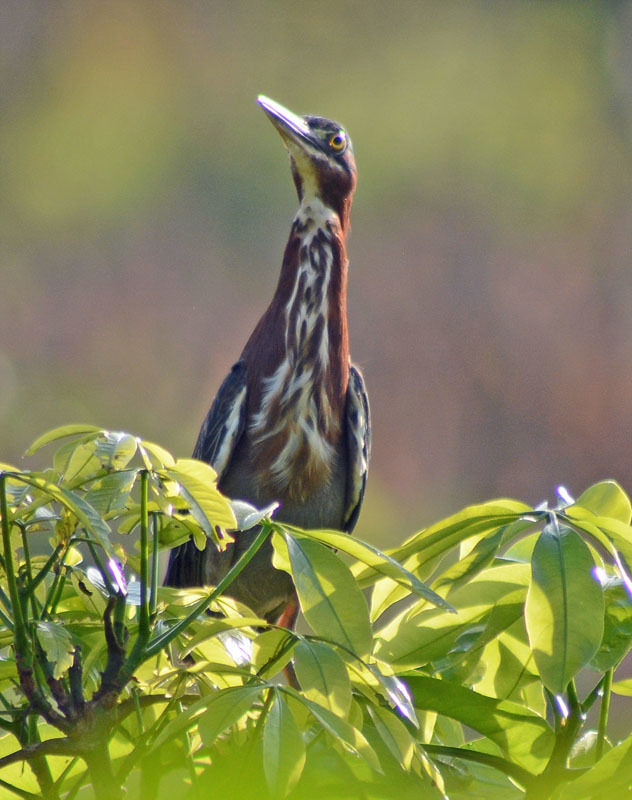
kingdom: Animalia
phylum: Chordata
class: Aves
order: Pelecaniformes
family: Ardeidae
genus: Butorides
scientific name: Butorides virescens
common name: Green heron
